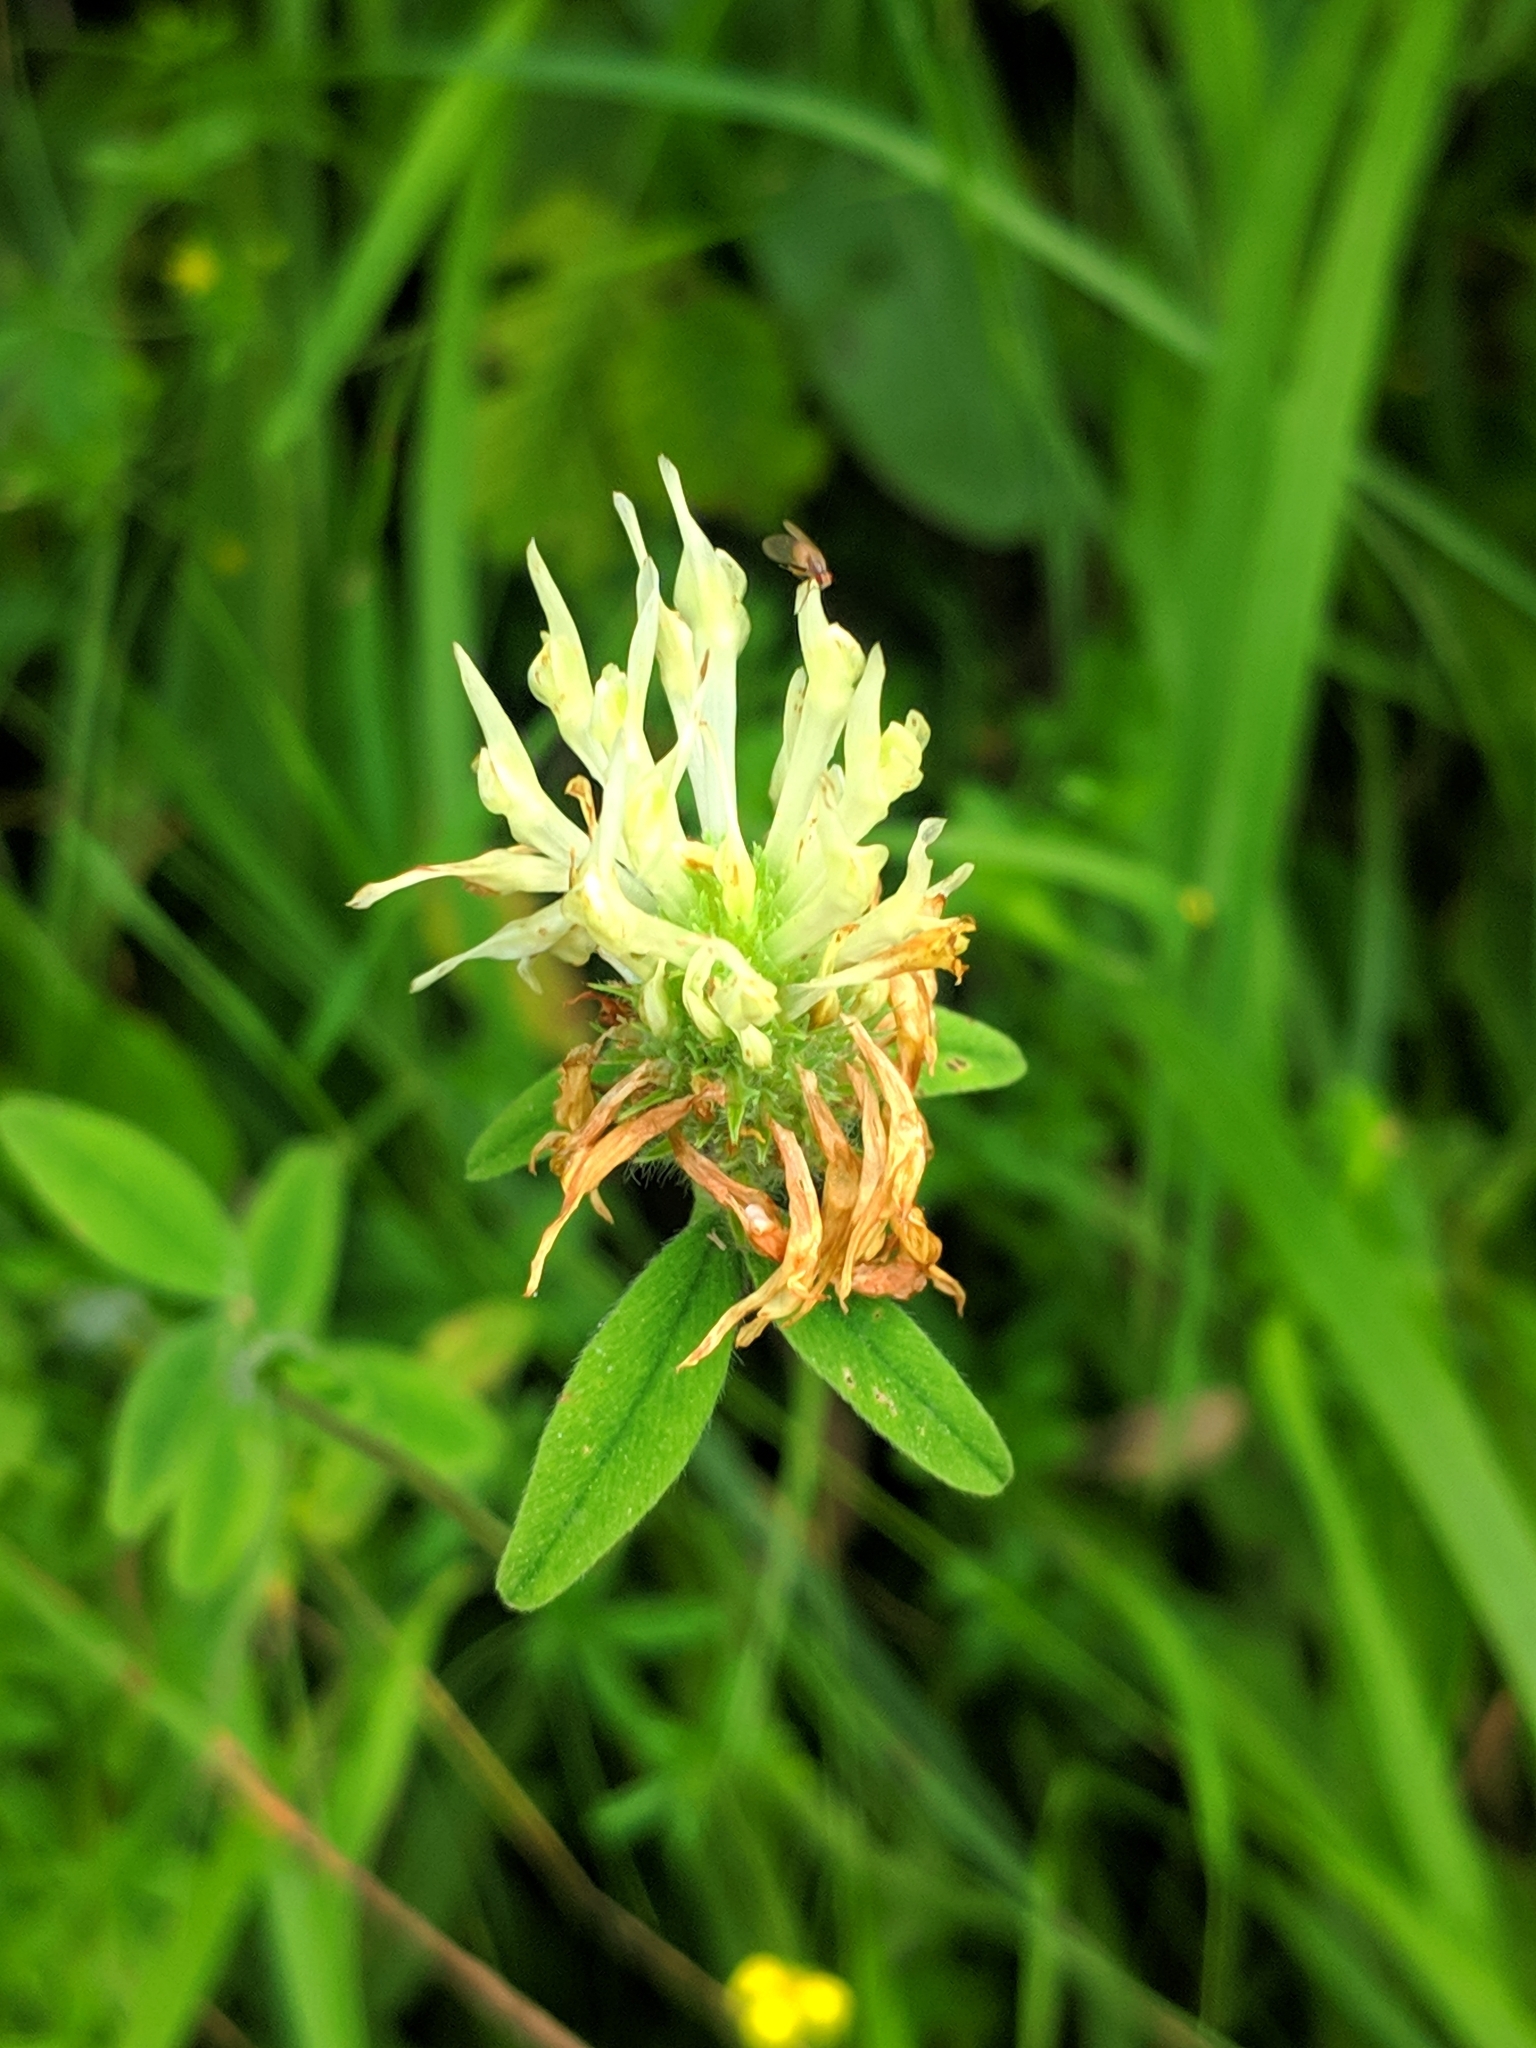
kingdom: Plantae
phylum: Tracheophyta
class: Magnoliopsida
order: Fabales
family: Fabaceae
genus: Trifolium
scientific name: Trifolium ochroleucon
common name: Sulphur clover
